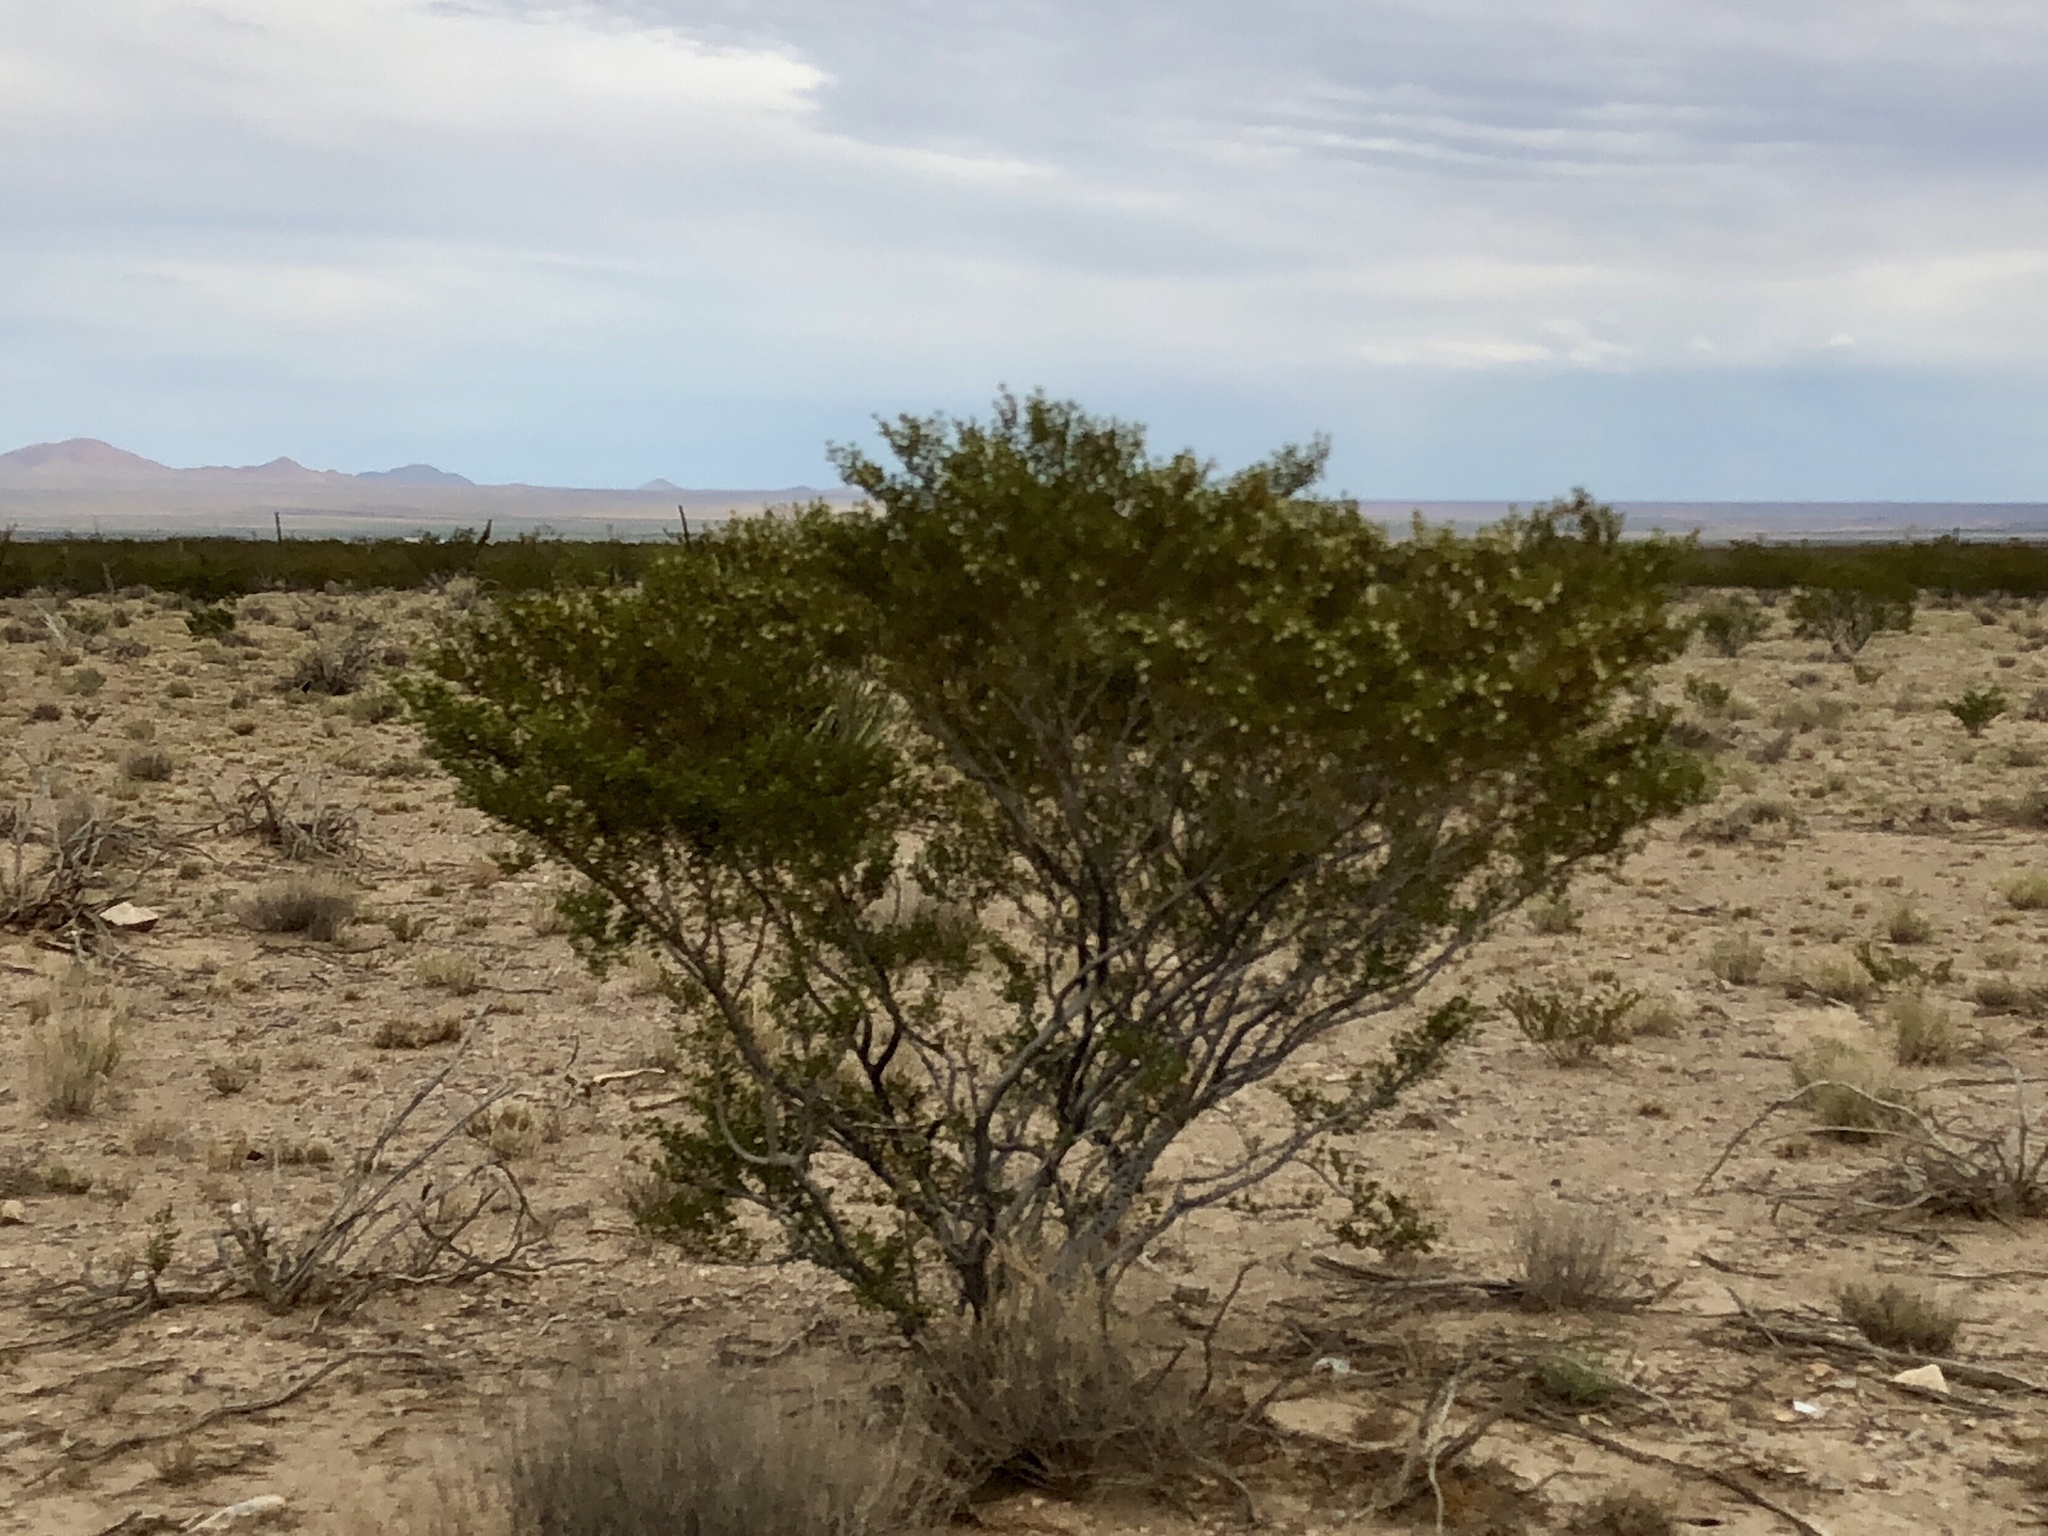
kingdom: Plantae
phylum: Tracheophyta
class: Magnoliopsida
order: Zygophyllales
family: Zygophyllaceae
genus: Larrea
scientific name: Larrea tridentata
